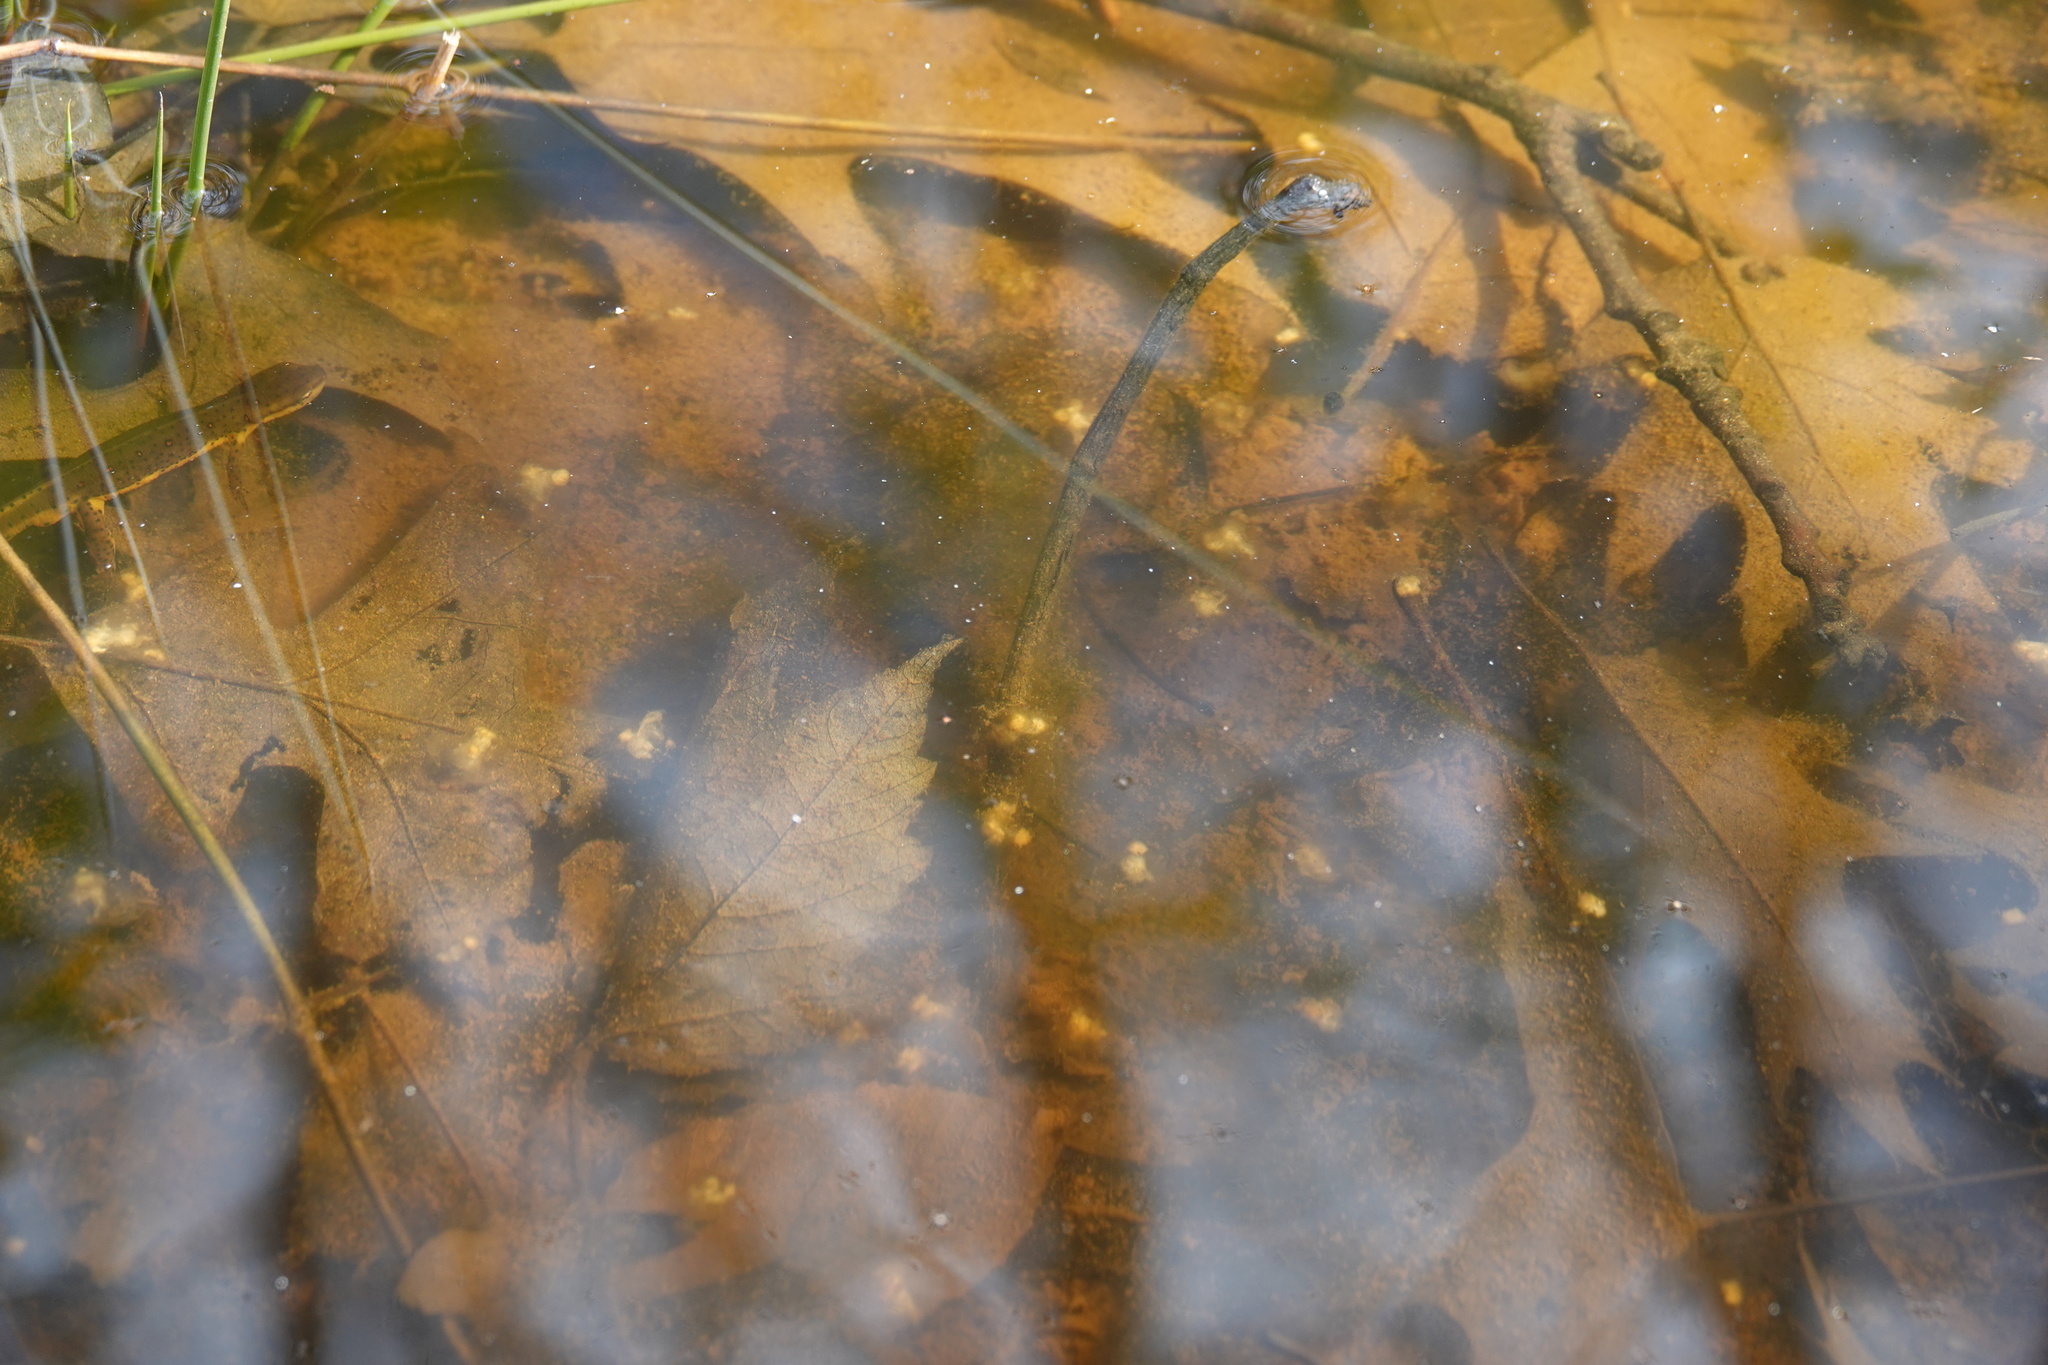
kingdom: Animalia
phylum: Chordata
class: Amphibia
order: Caudata
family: Ambystomatidae
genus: Ambystoma
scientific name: Ambystoma maculatum
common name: Spotted salamander
